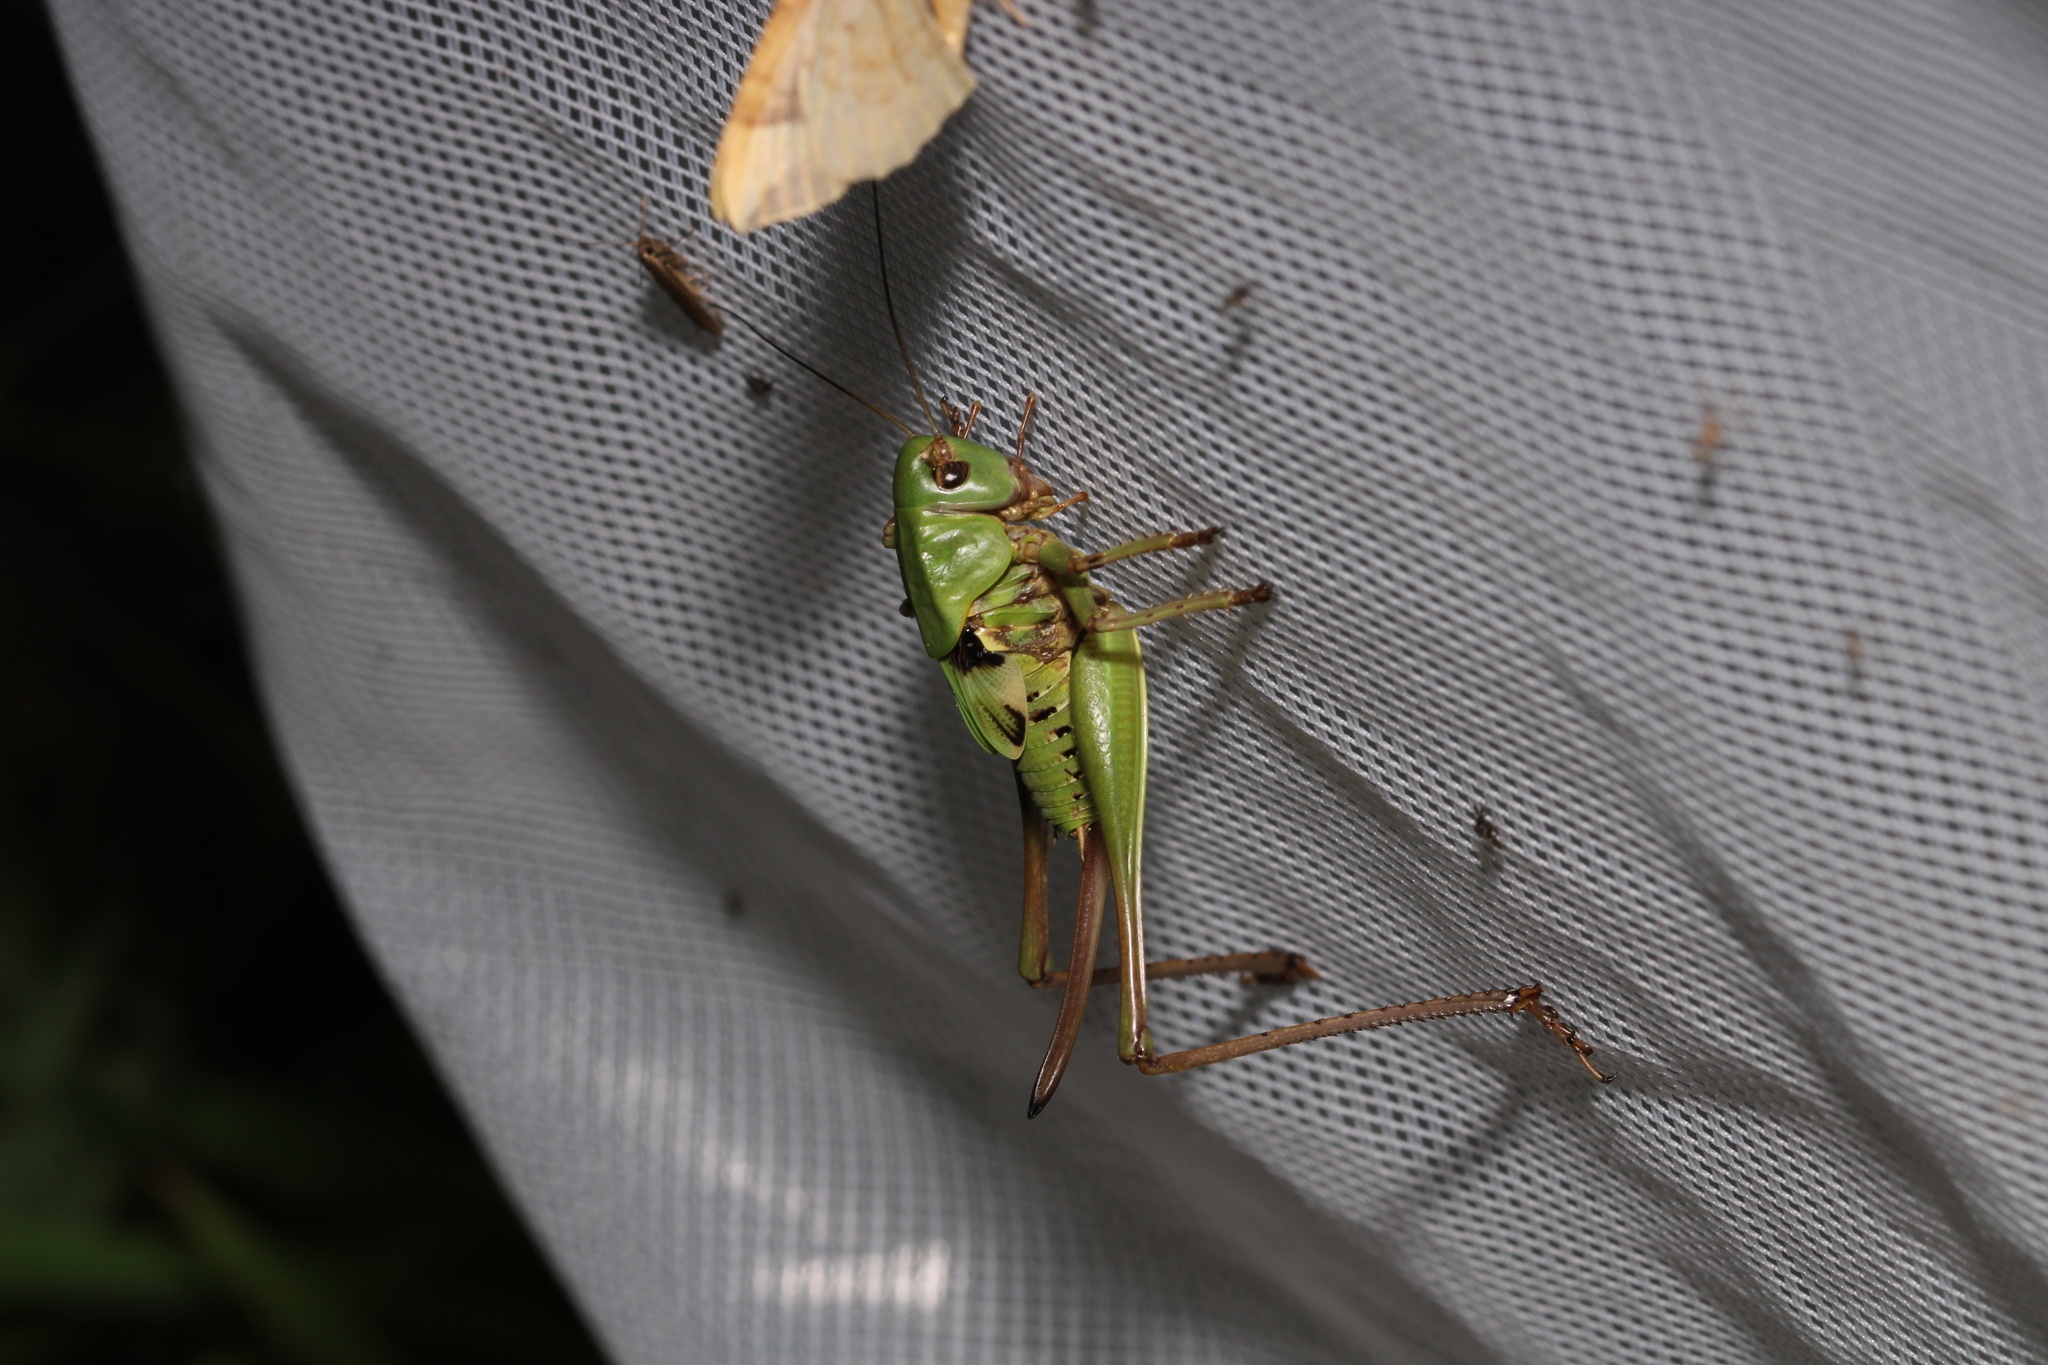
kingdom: Animalia
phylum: Arthropoda
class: Insecta
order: Orthoptera
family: Tettigoniidae
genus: Decticus
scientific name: Decticus verrucivorus
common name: Wart-biter
